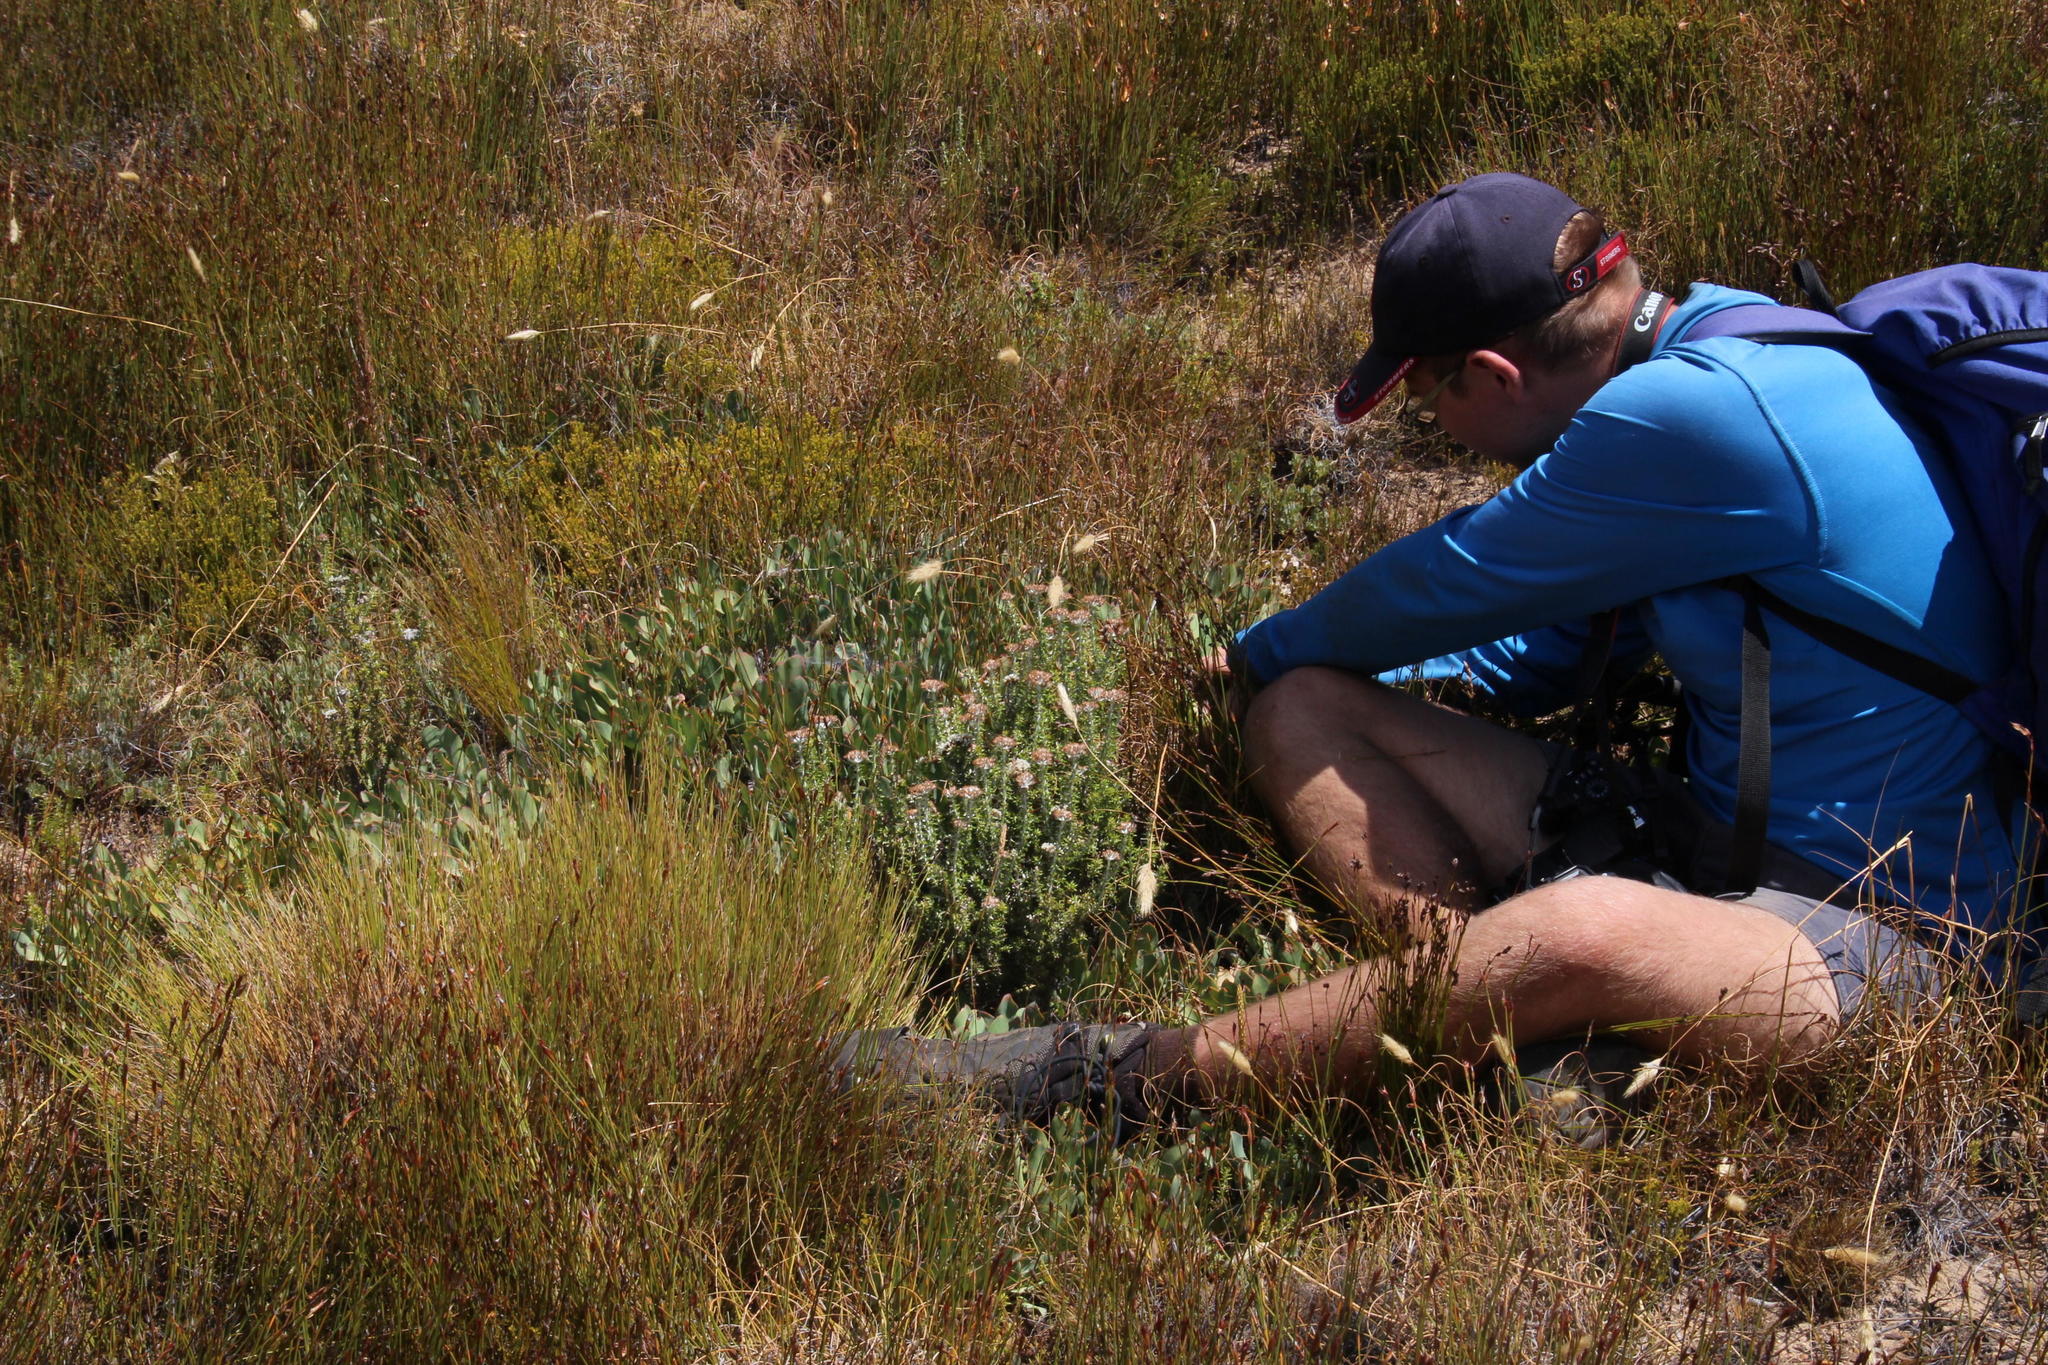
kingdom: Plantae
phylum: Tracheophyta
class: Magnoliopsida
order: Proteales
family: Proteaceae
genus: Protea
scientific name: Protea laevis
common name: Smooth-leaf sugarbush
